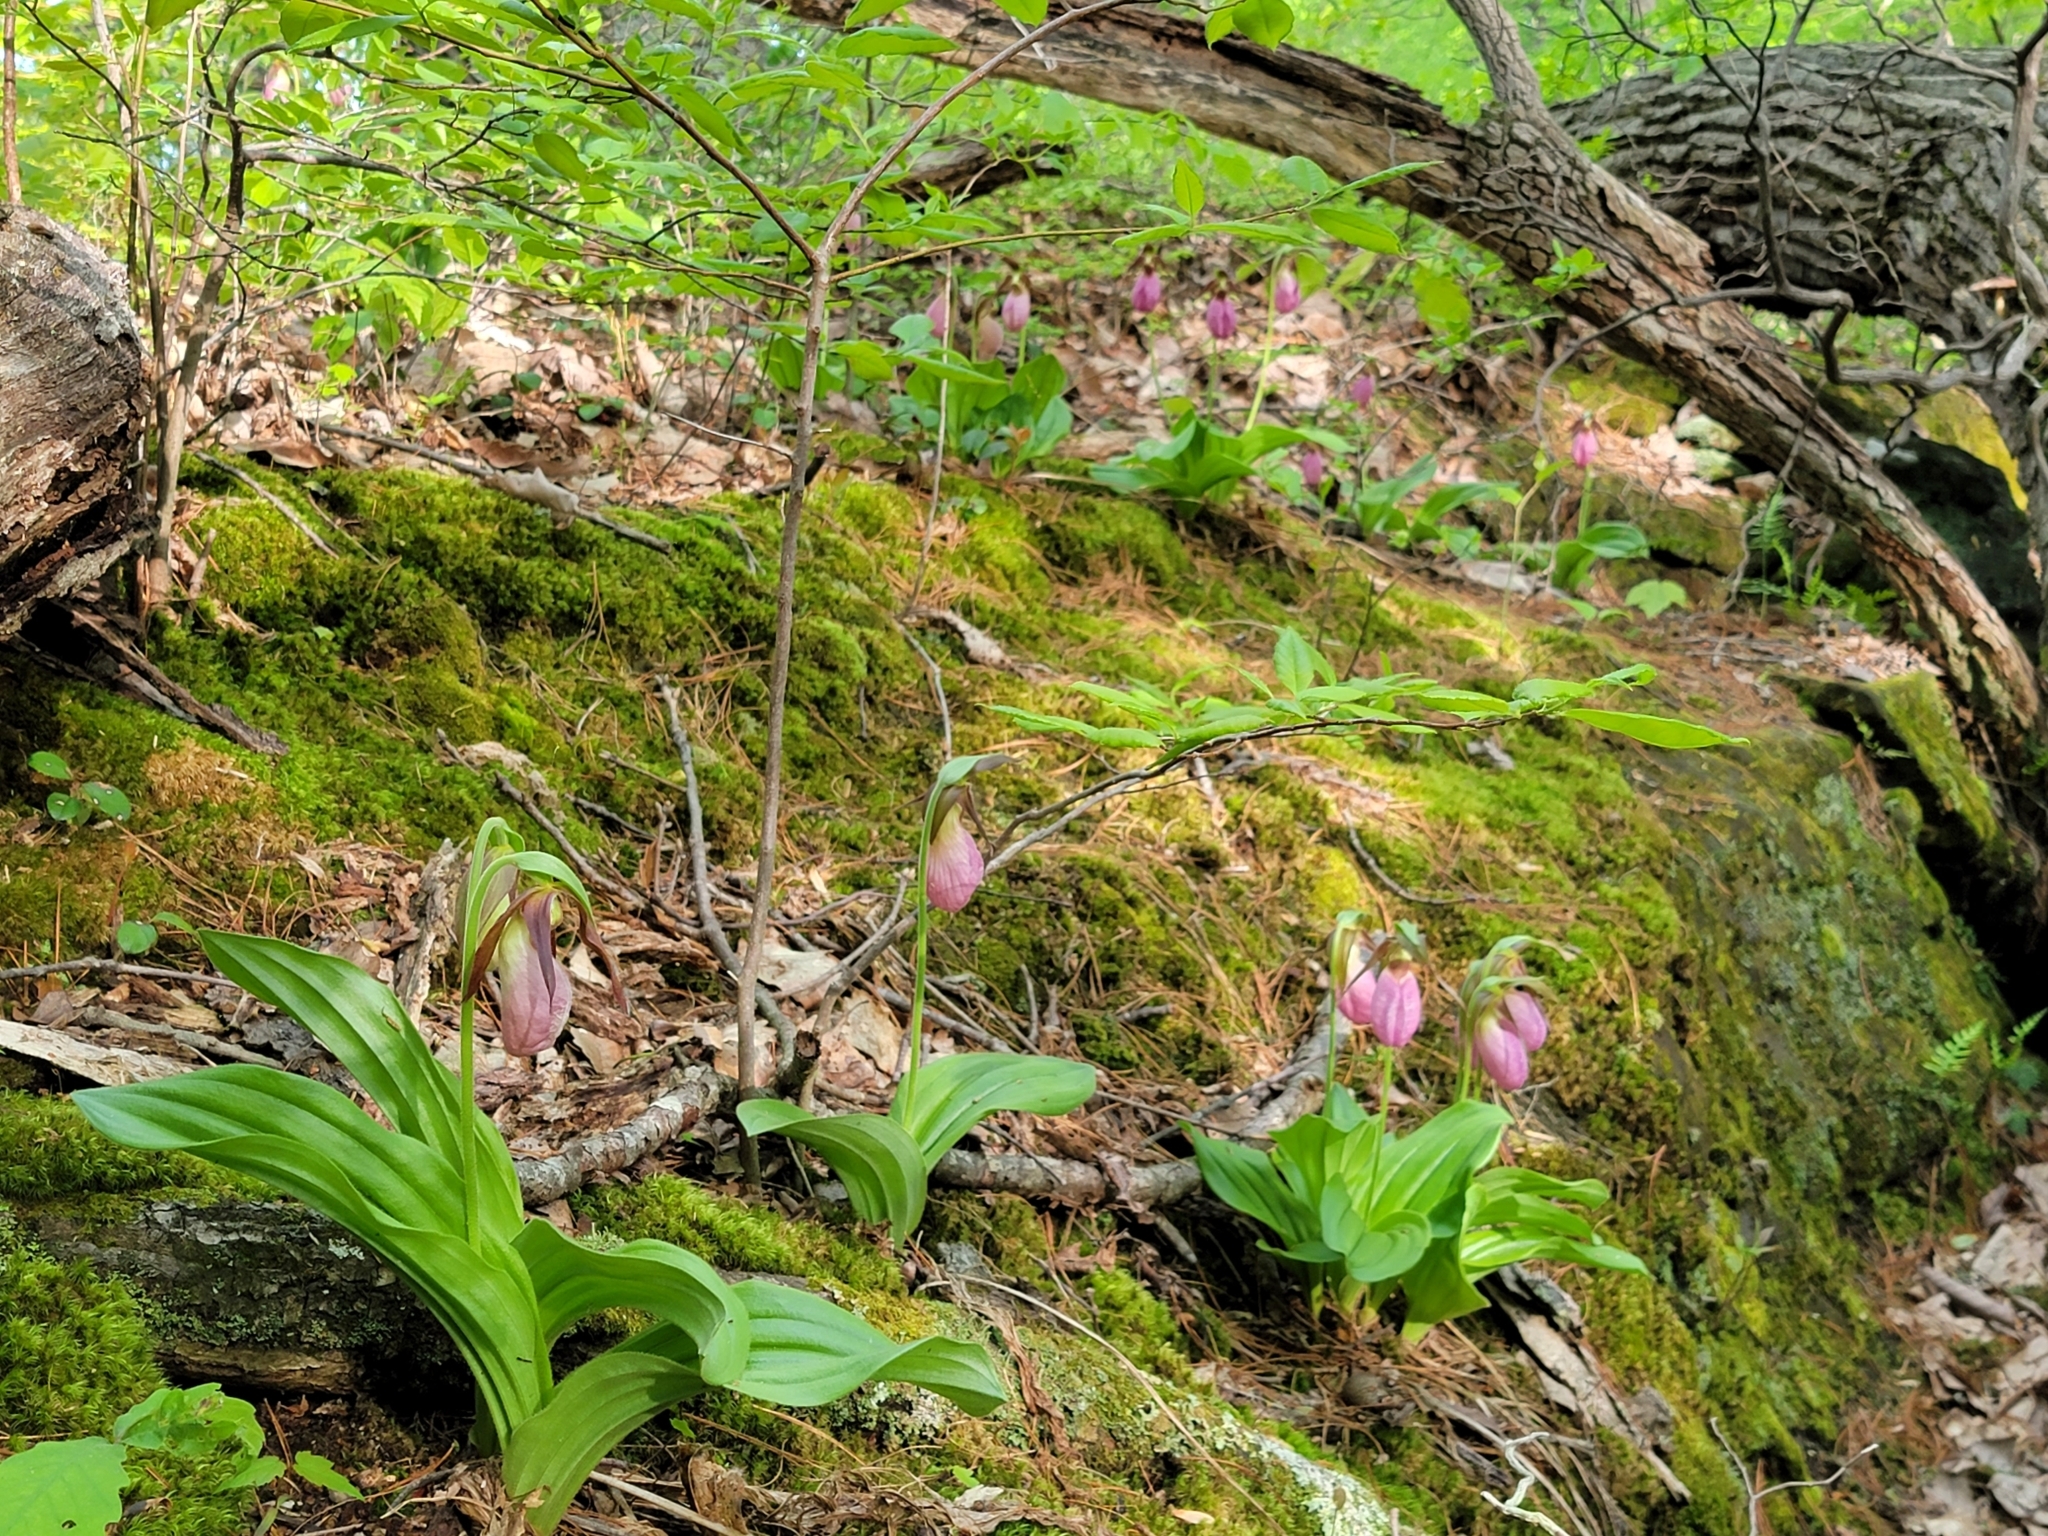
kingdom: Plantae
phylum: Tracheophyta
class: Liliopsida
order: Asparagales
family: Orchidaceae
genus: Cypripedium
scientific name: Cypripedium acaule
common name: Pink lady's-slipper
